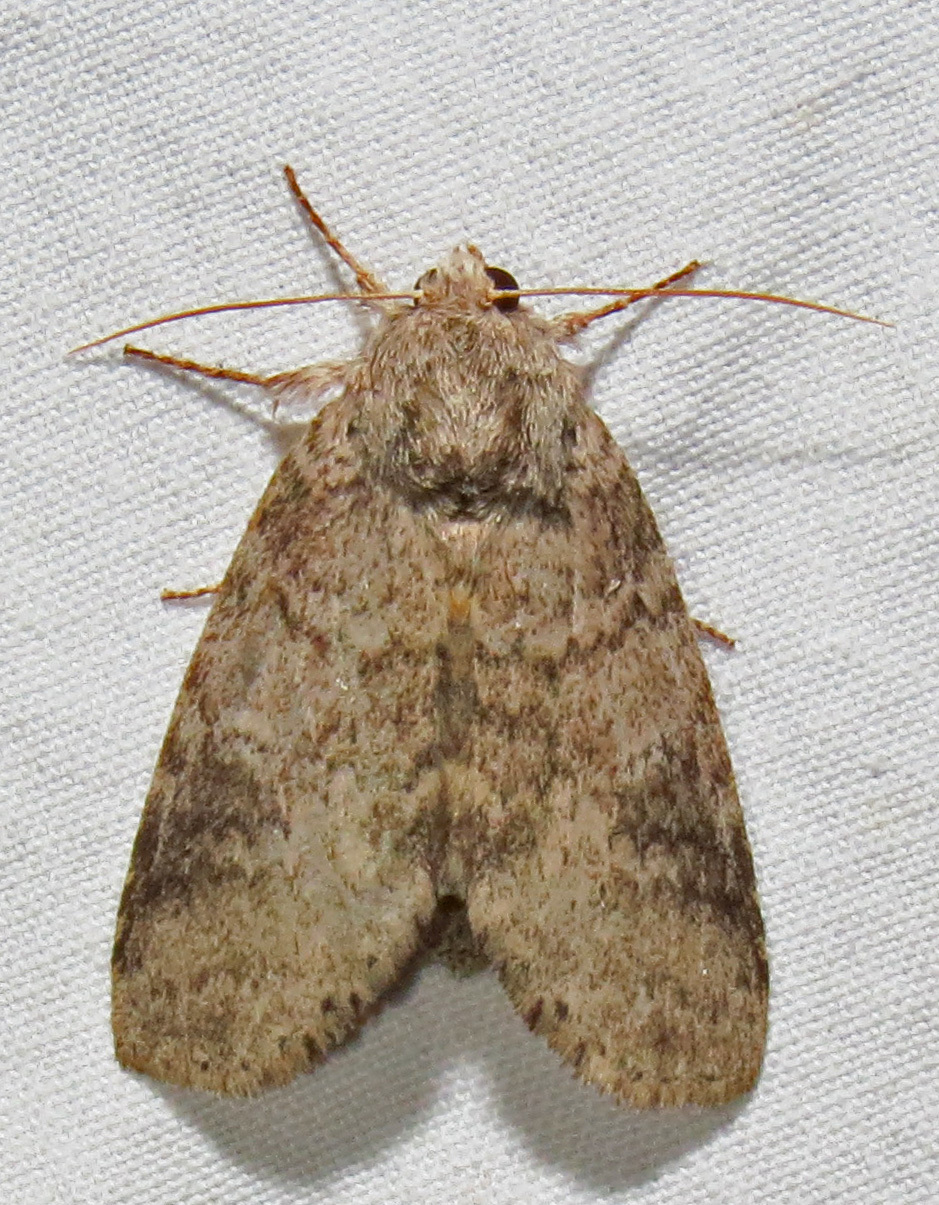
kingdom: Animalia
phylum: Arthropoda
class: Insecta
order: Lepidoptera
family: Notodontidae
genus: Lochmaeus
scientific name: Lochmaeus manteo
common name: Variable oakleaf caterpillar moth
